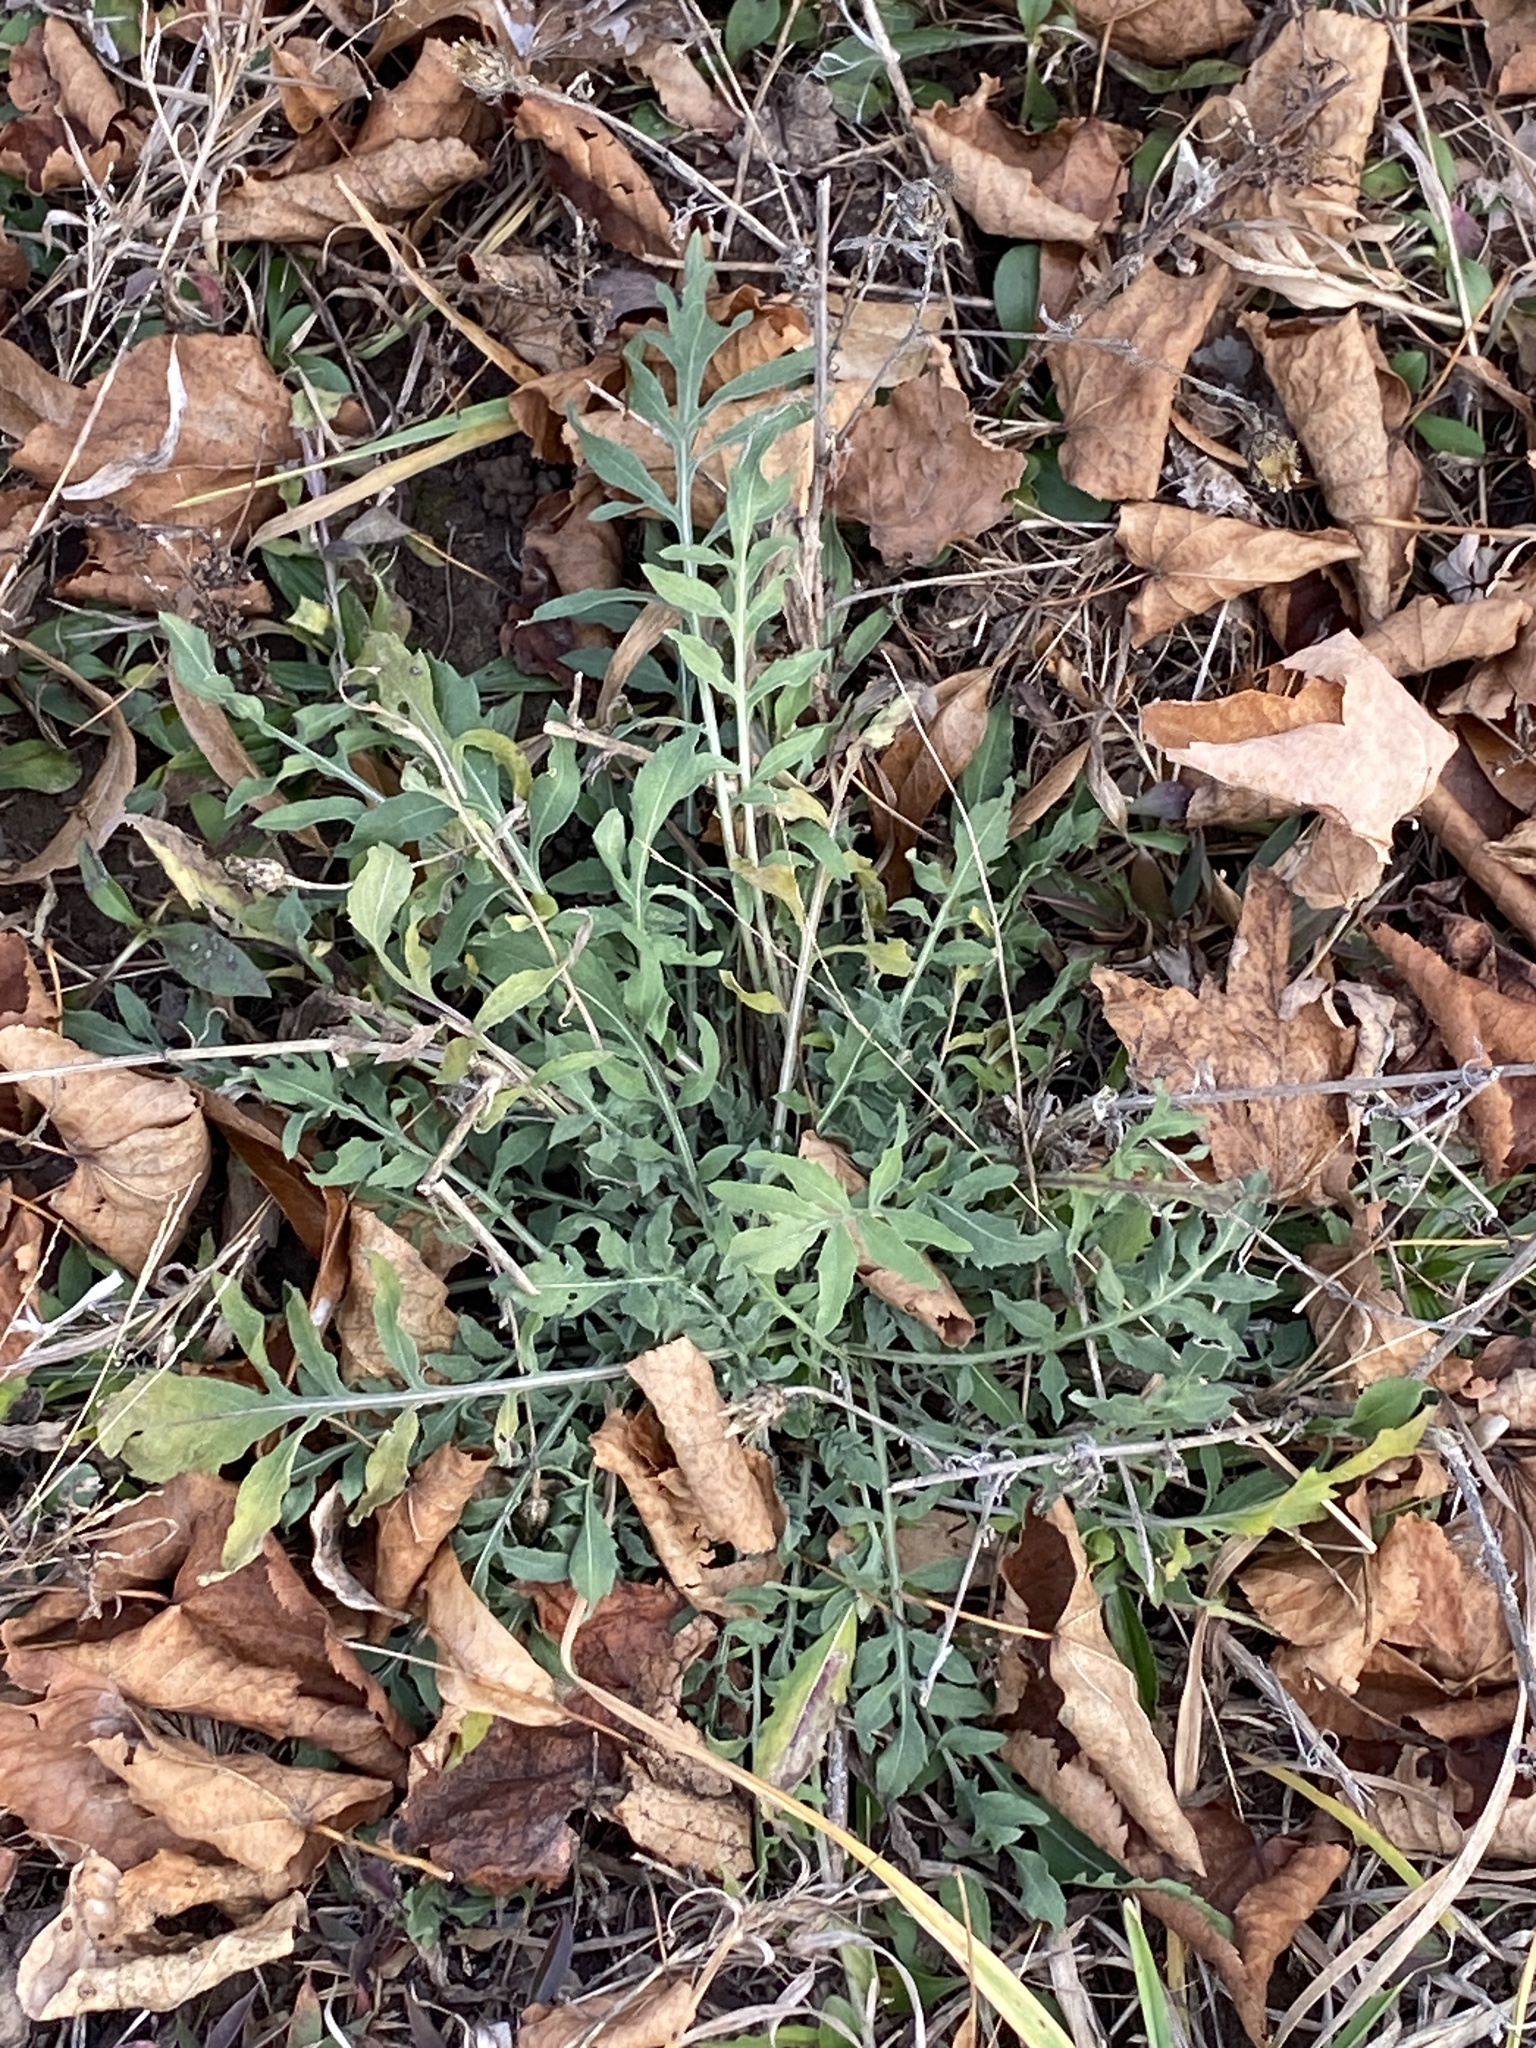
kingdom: Plantae
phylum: Tracheophyta
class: Magnoliopsida
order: Asterales
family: Asteraceae
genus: Centaurea
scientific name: Centaurea stoebe
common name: Spotted knapweed
